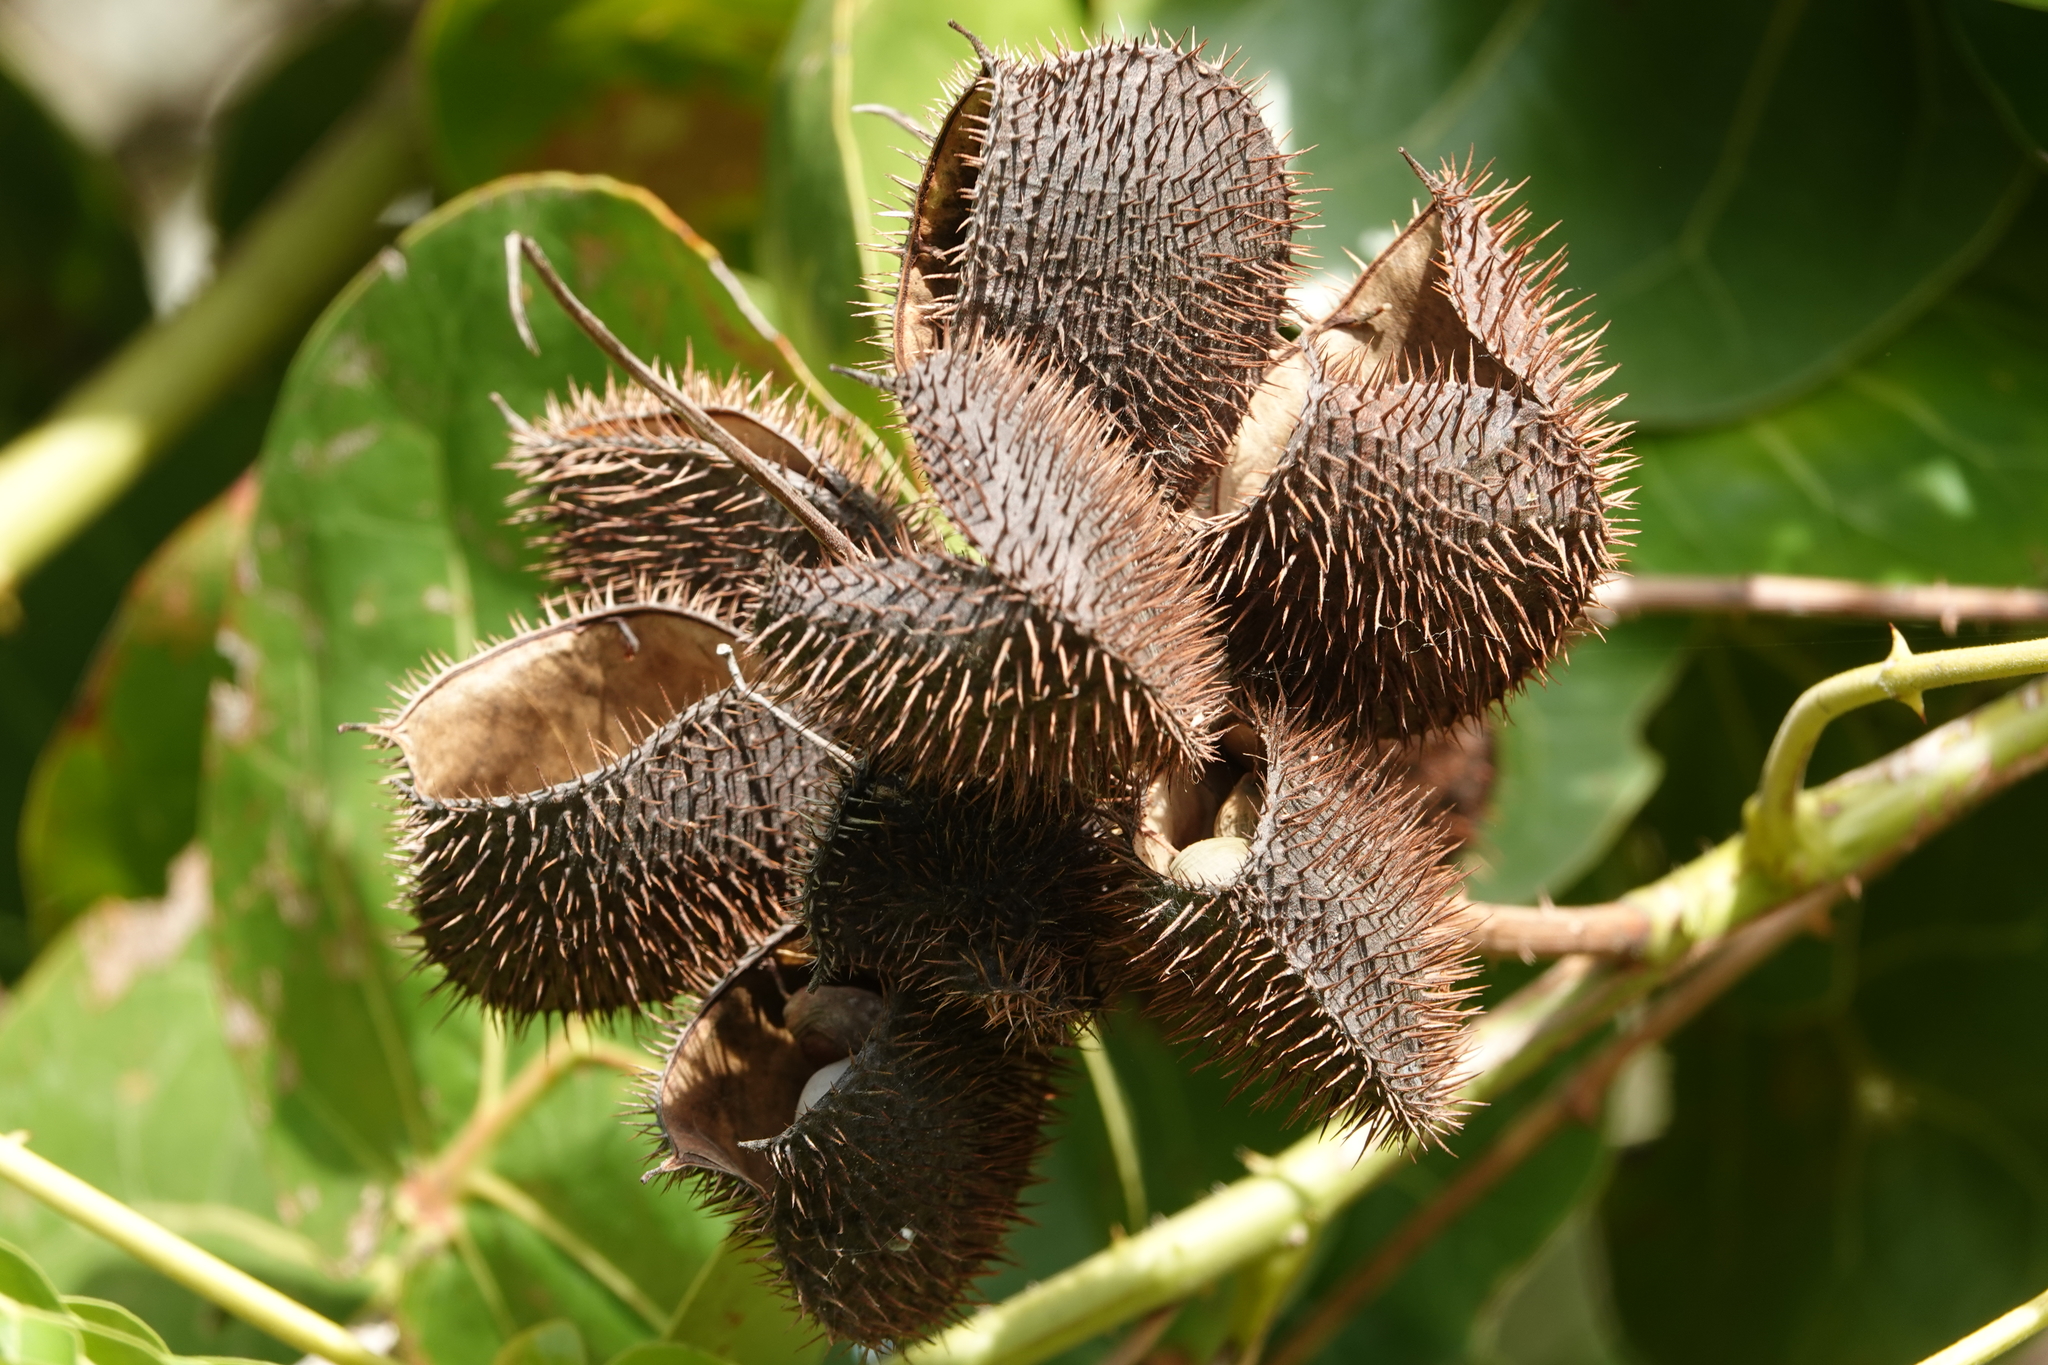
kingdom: Plantae
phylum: Tracheophyta
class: Magnoliopsida
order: Fabales
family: Fabaceae
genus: Guilandina
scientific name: Guilandina bonduc
